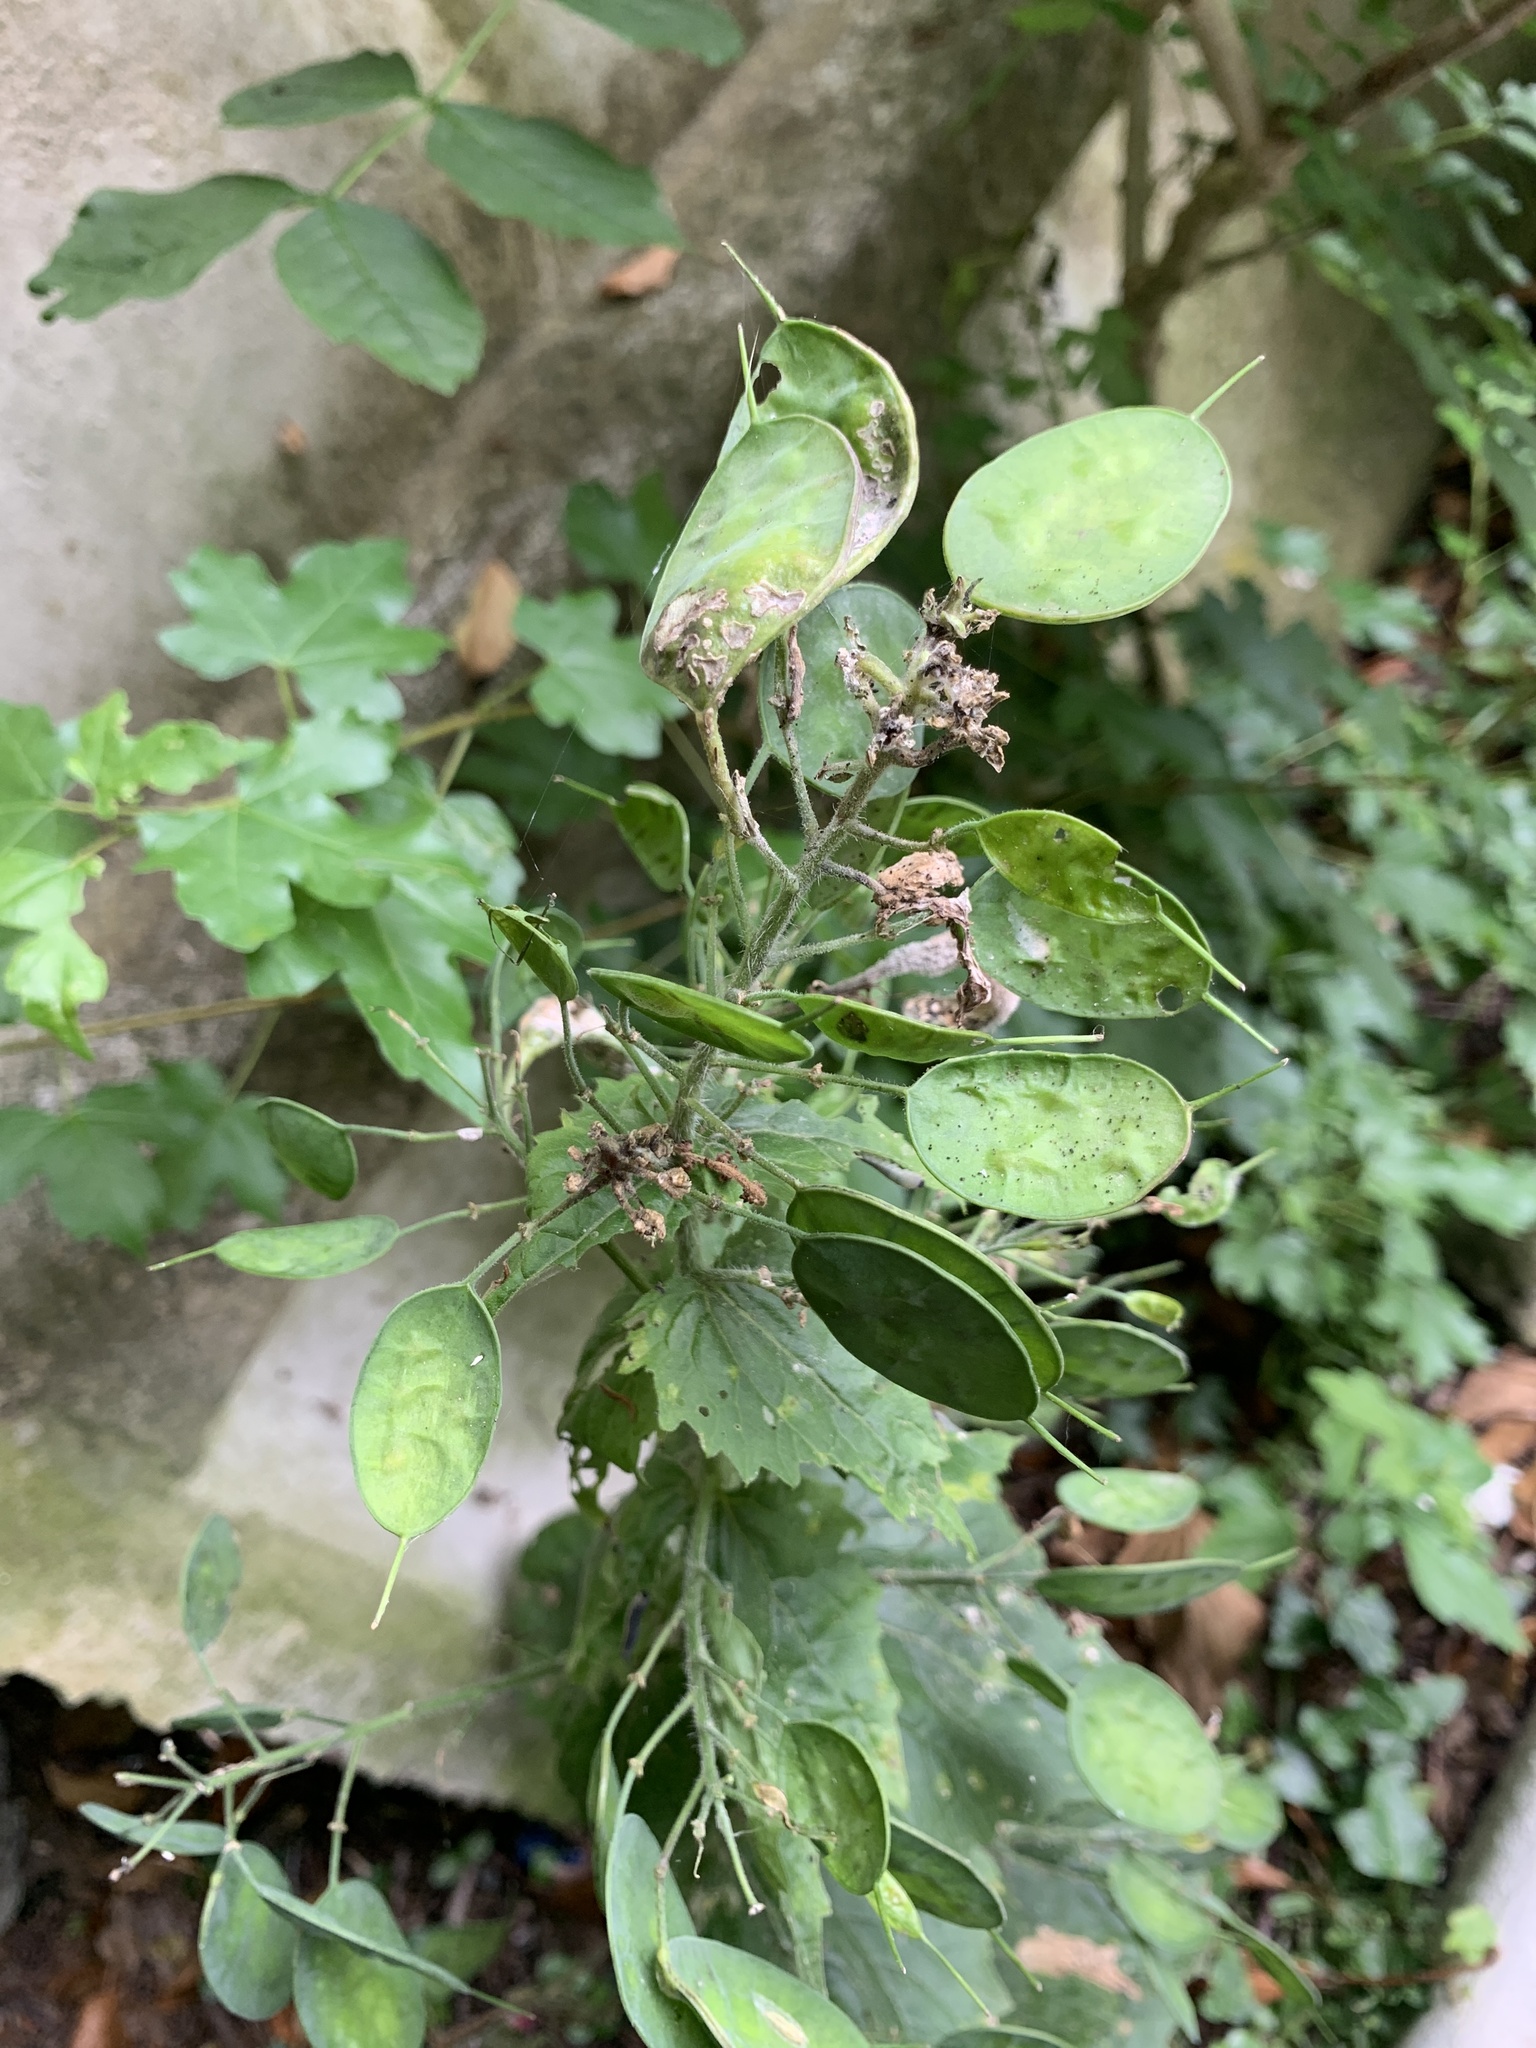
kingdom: Plantae
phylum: Tracheophyta
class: Magnoliopsida
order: Brassicales
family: Brassicaceae
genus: Lunaria
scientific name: Lunaria annua
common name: Honesty
